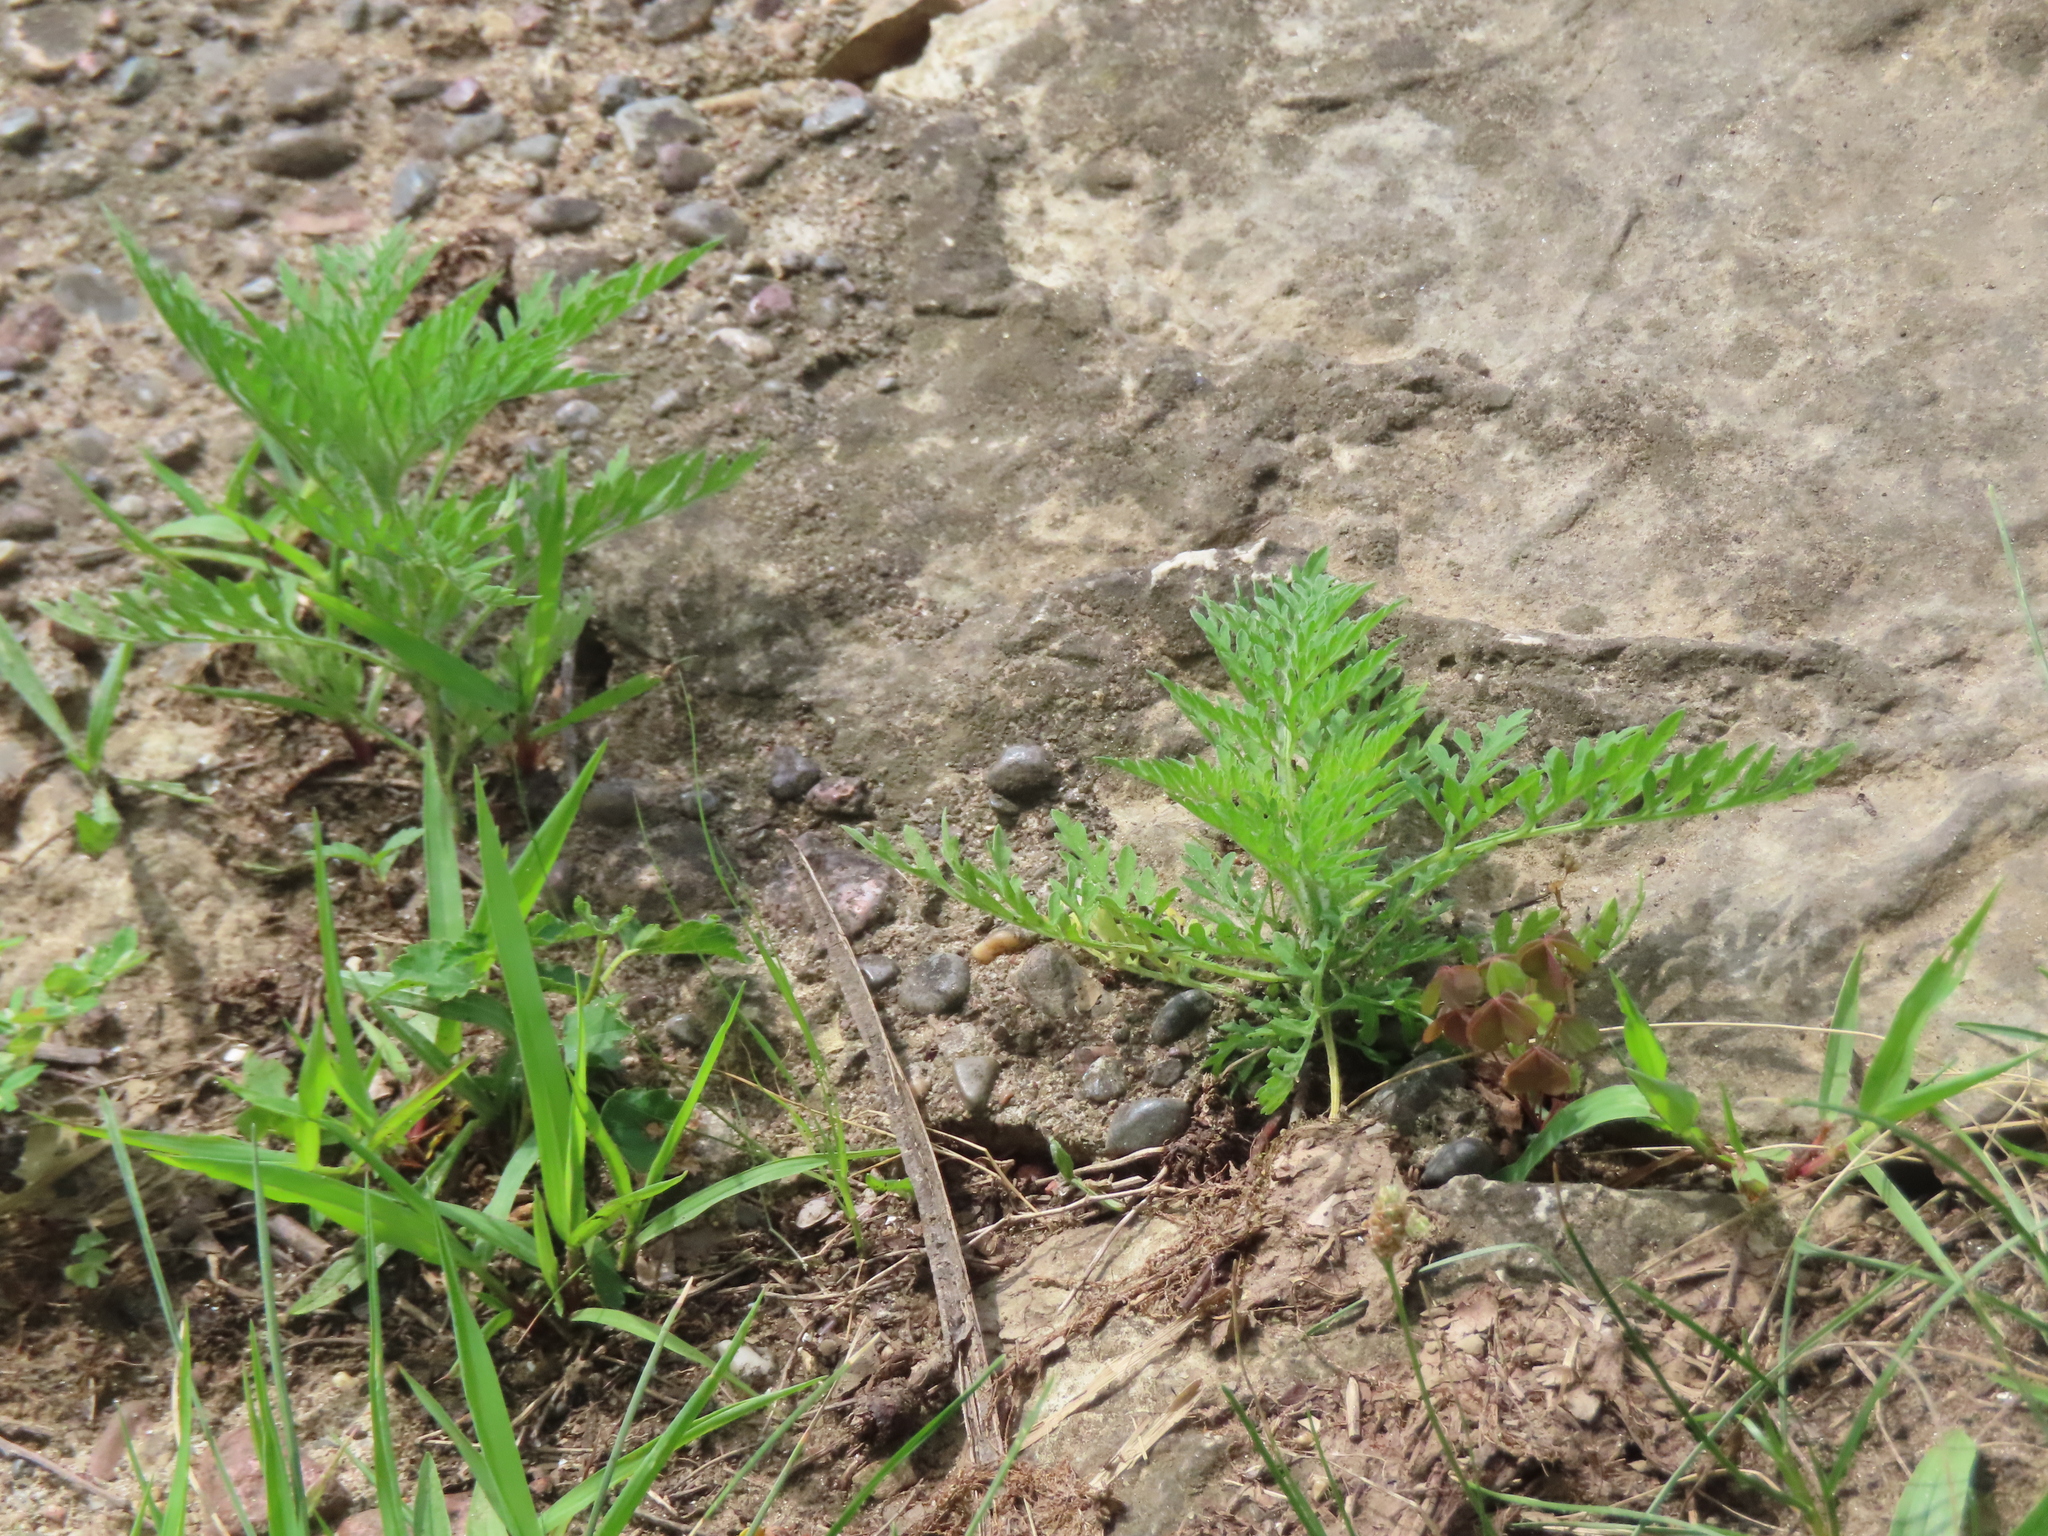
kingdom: Plantae
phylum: Tracheophyta
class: Magnoliopsida
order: Asterales
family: Asteraceae
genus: Ambrosia
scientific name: Ambrosia artemisiifolia
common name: Annual ragweed
